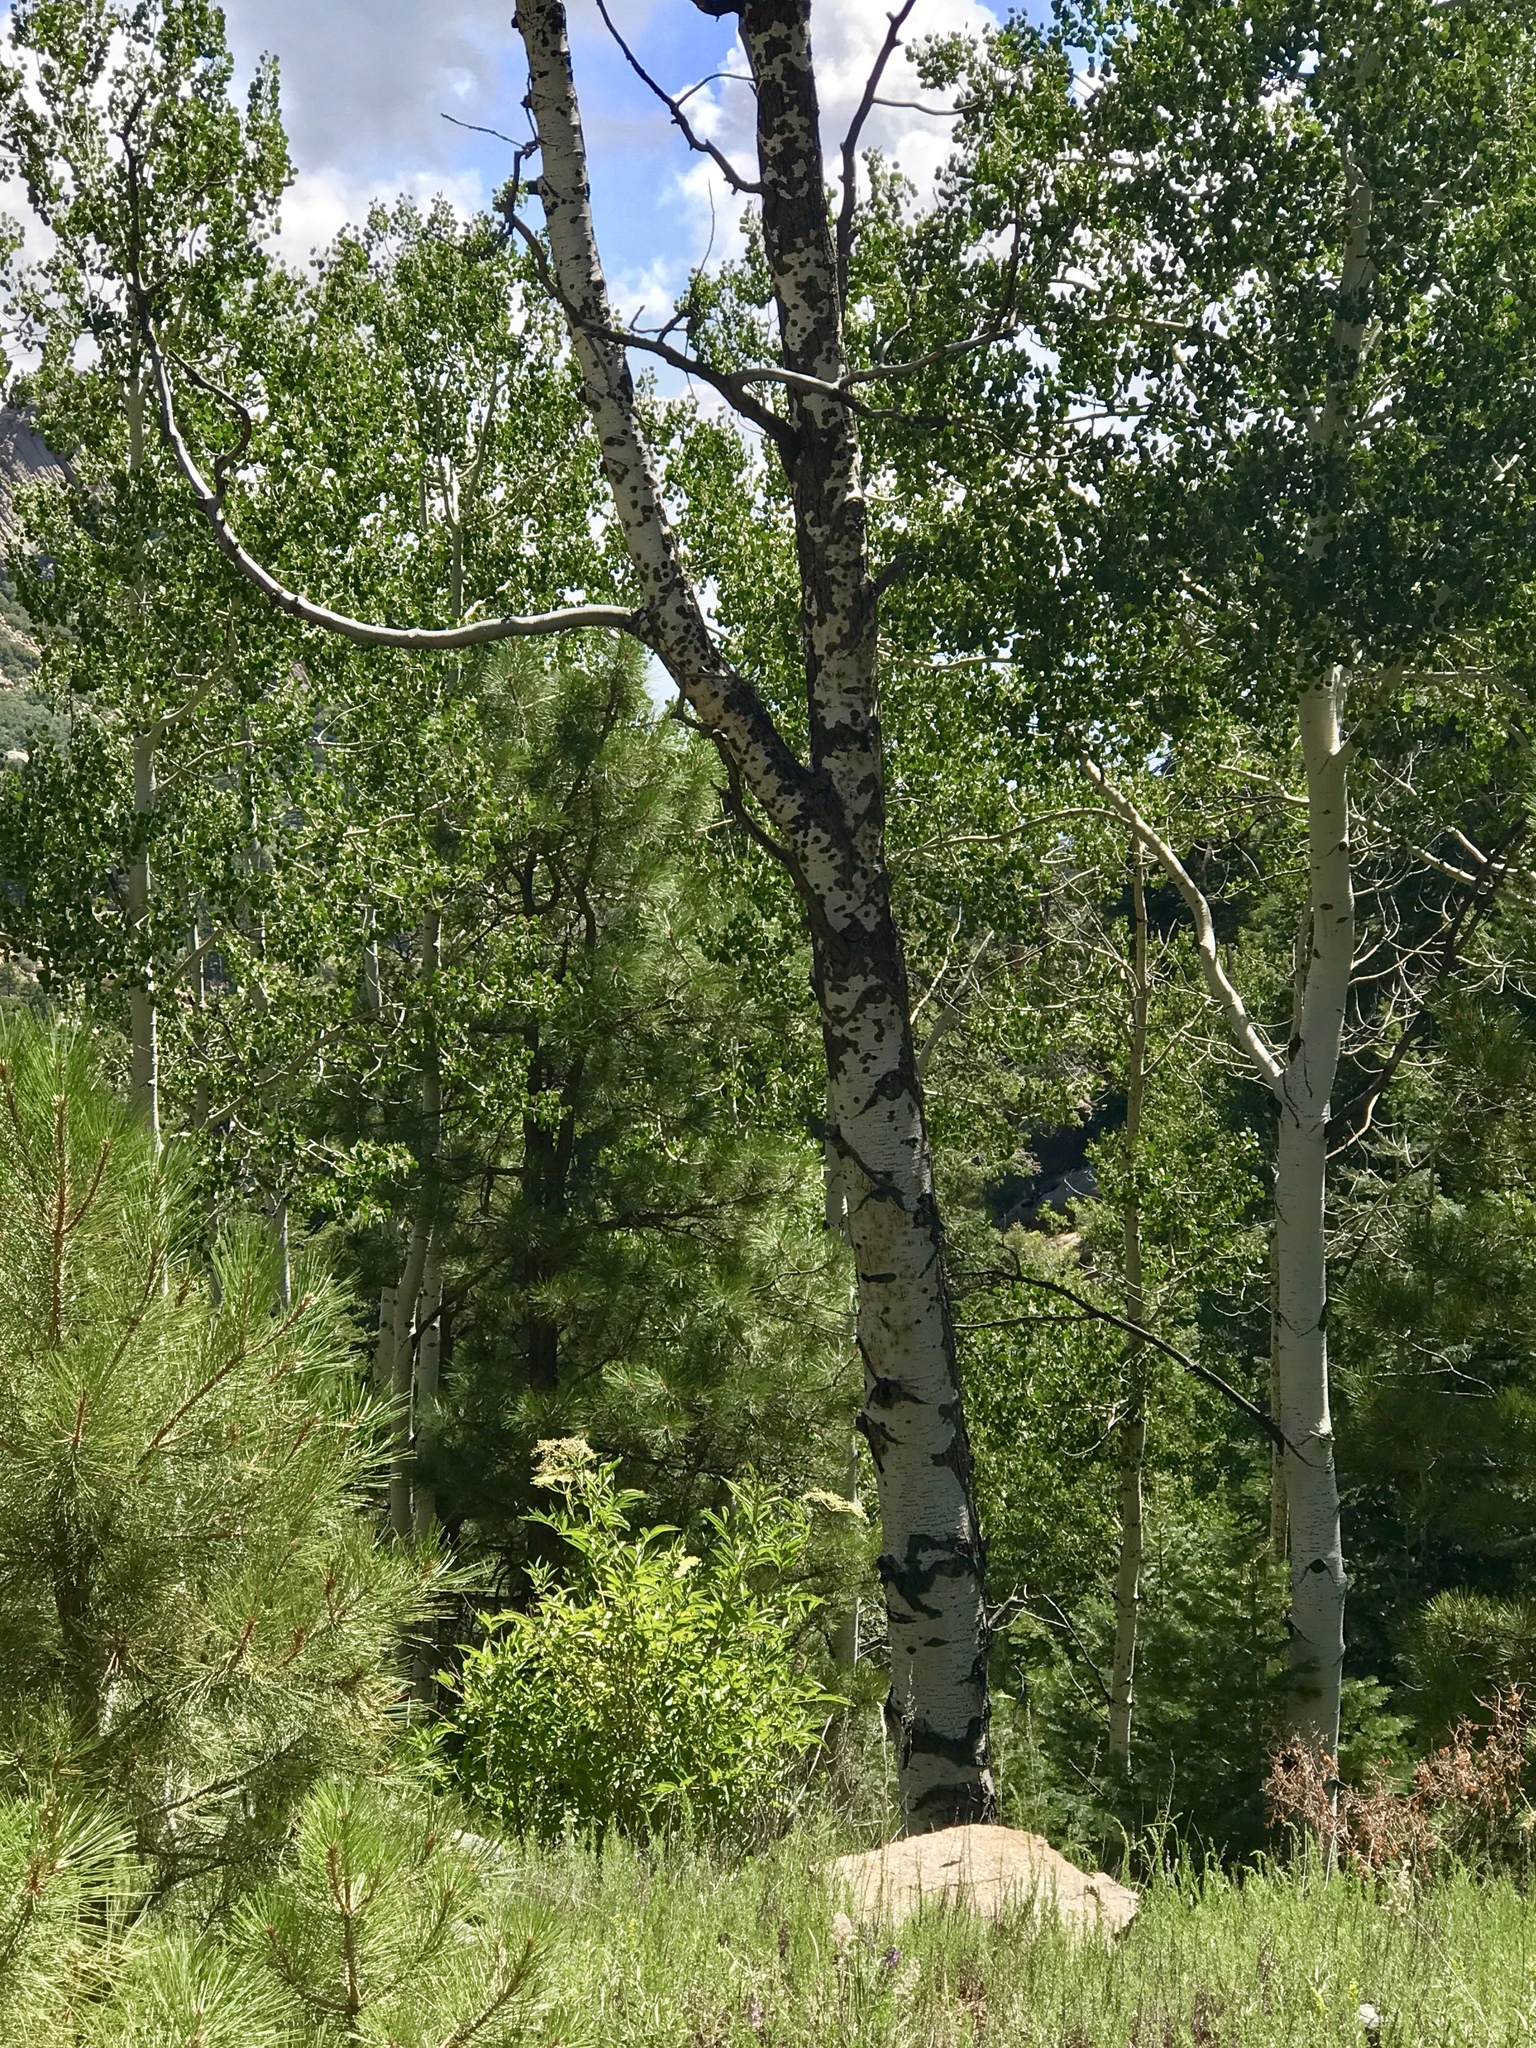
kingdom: Plantae
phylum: Tracheophyta
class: Magnoliopsida
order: Malpighiales
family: Salicaceae
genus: Populus
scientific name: Populus tremuloides
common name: Quaking aspen
